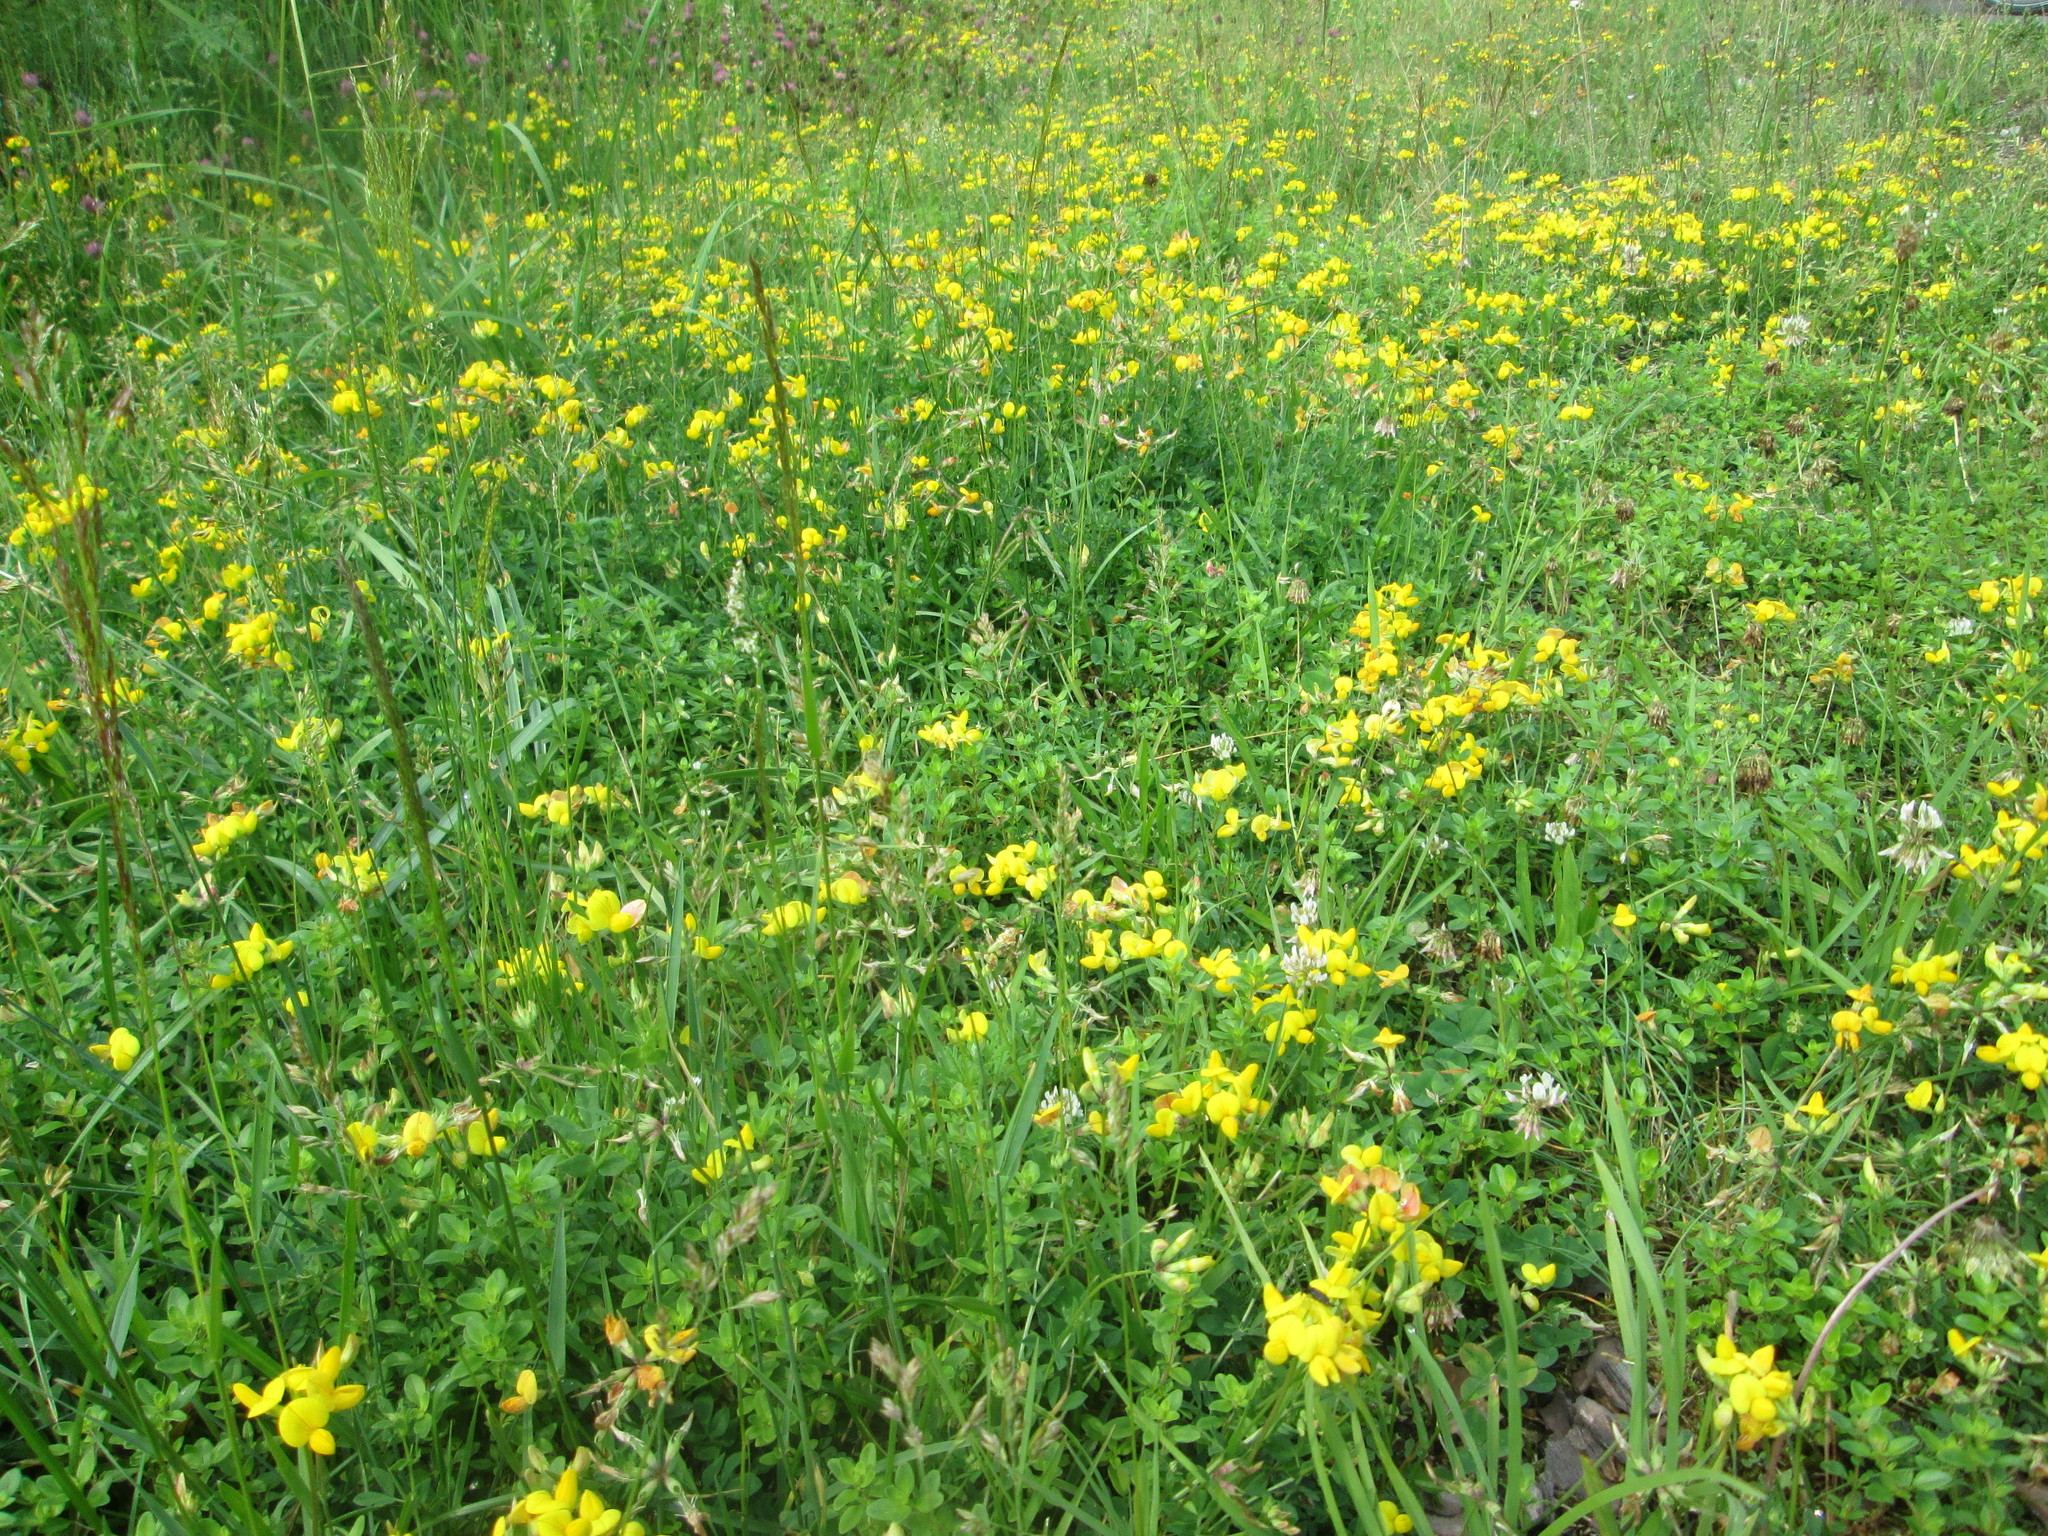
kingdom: Plantae
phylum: Tracheophyta
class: Magnoliopsida
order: Fabales
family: Fabaceae
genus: Lotus
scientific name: Lotus corniculatus
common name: Common bird's-foot-trefoil
